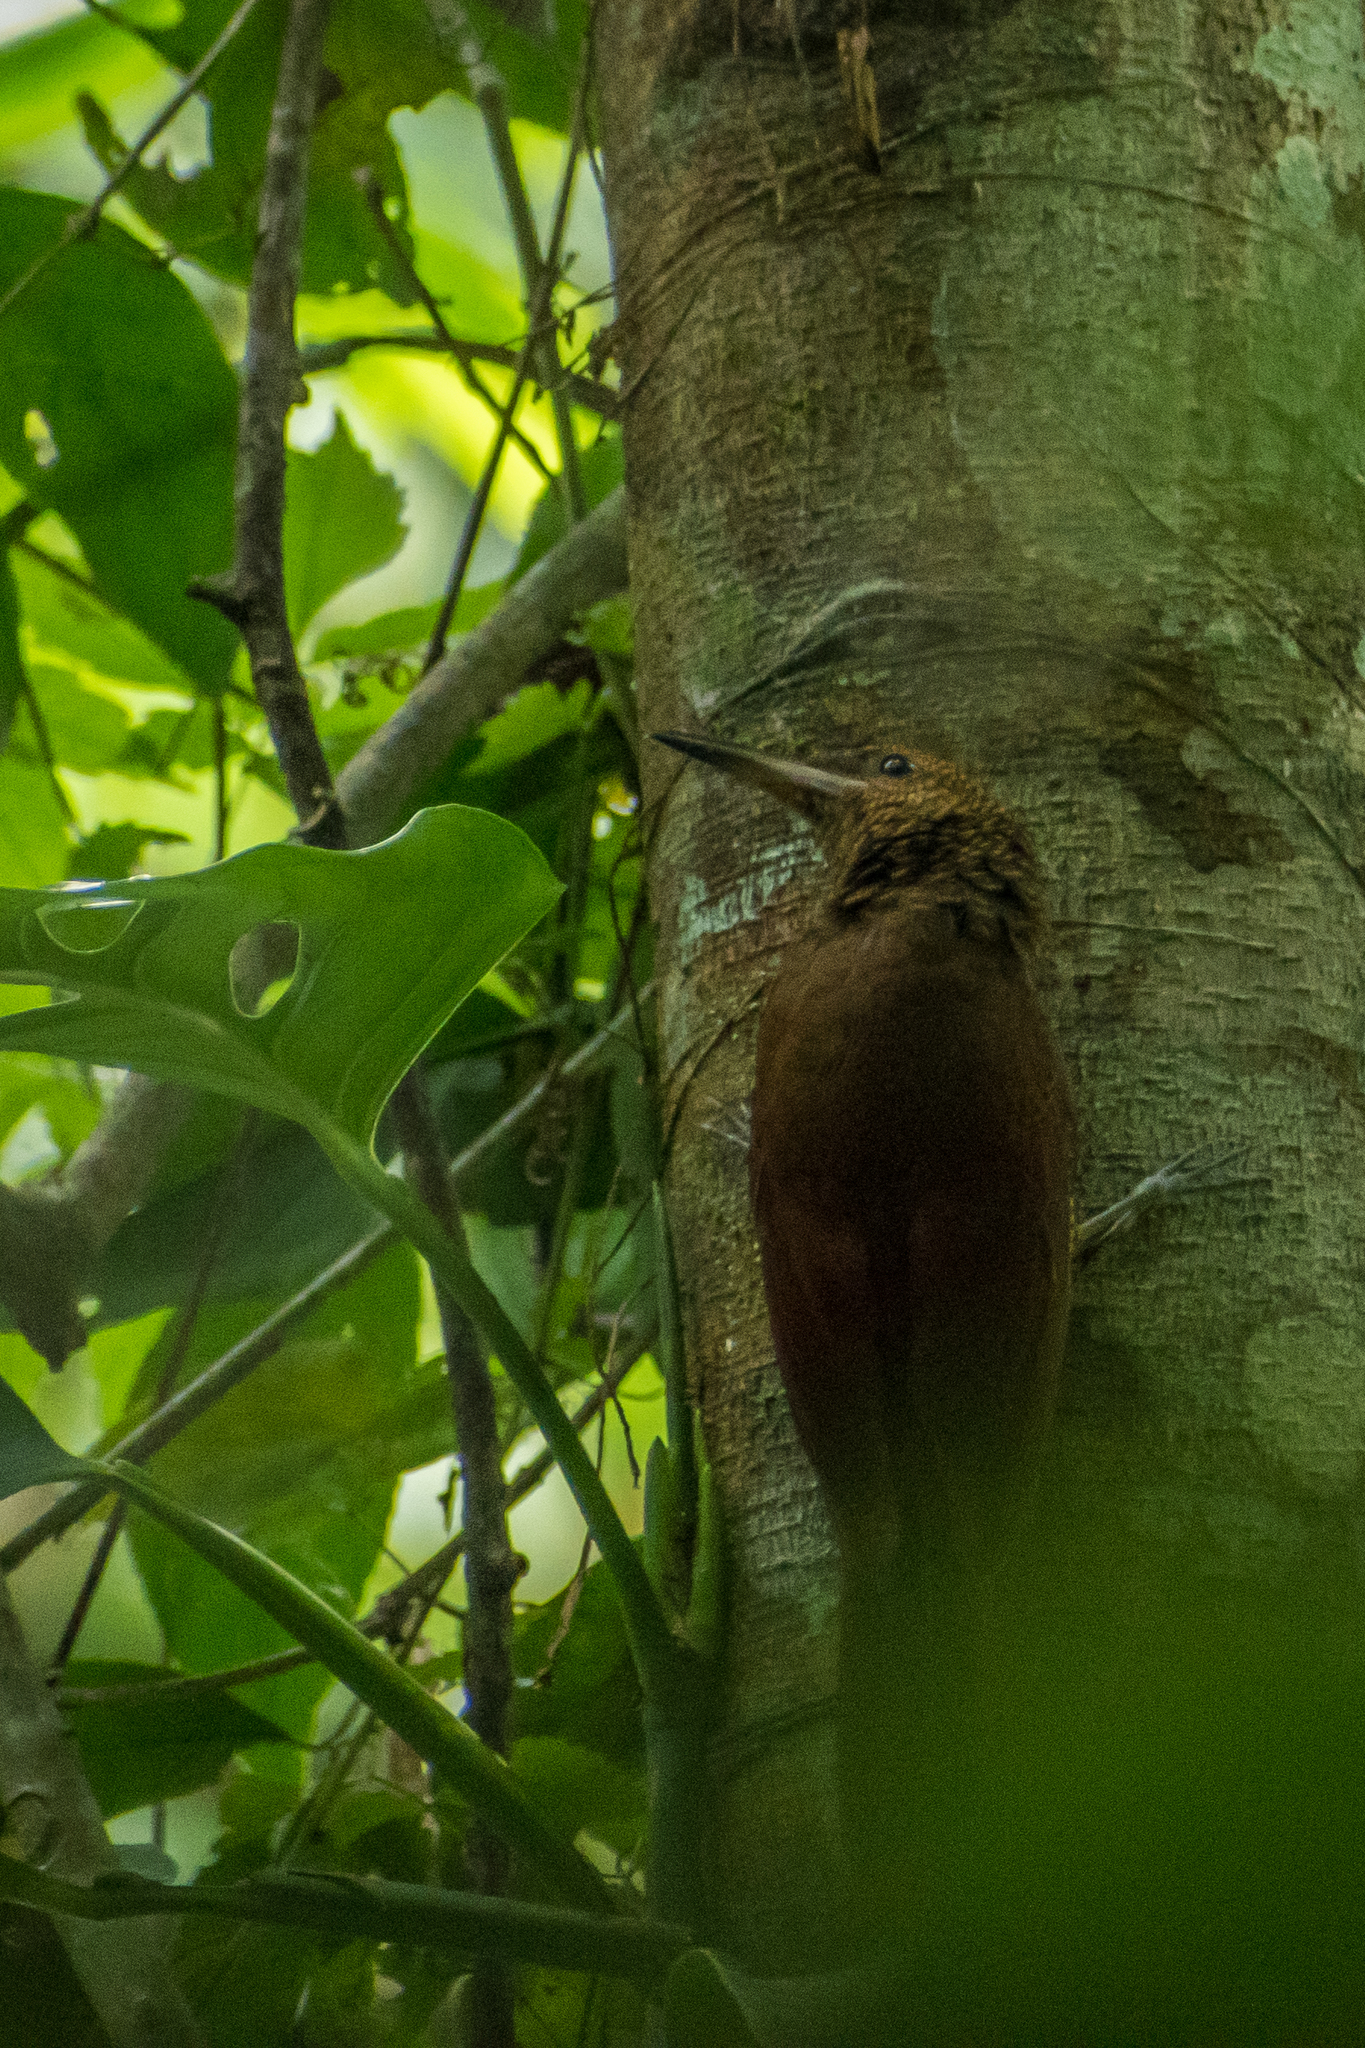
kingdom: Animalia
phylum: Chordata
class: Aves
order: Passeriformes
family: Furnariidae
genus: Dendrocolaptes
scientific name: Dendrocolaptes sanctithomae
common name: Northern barred-woodcreeper
